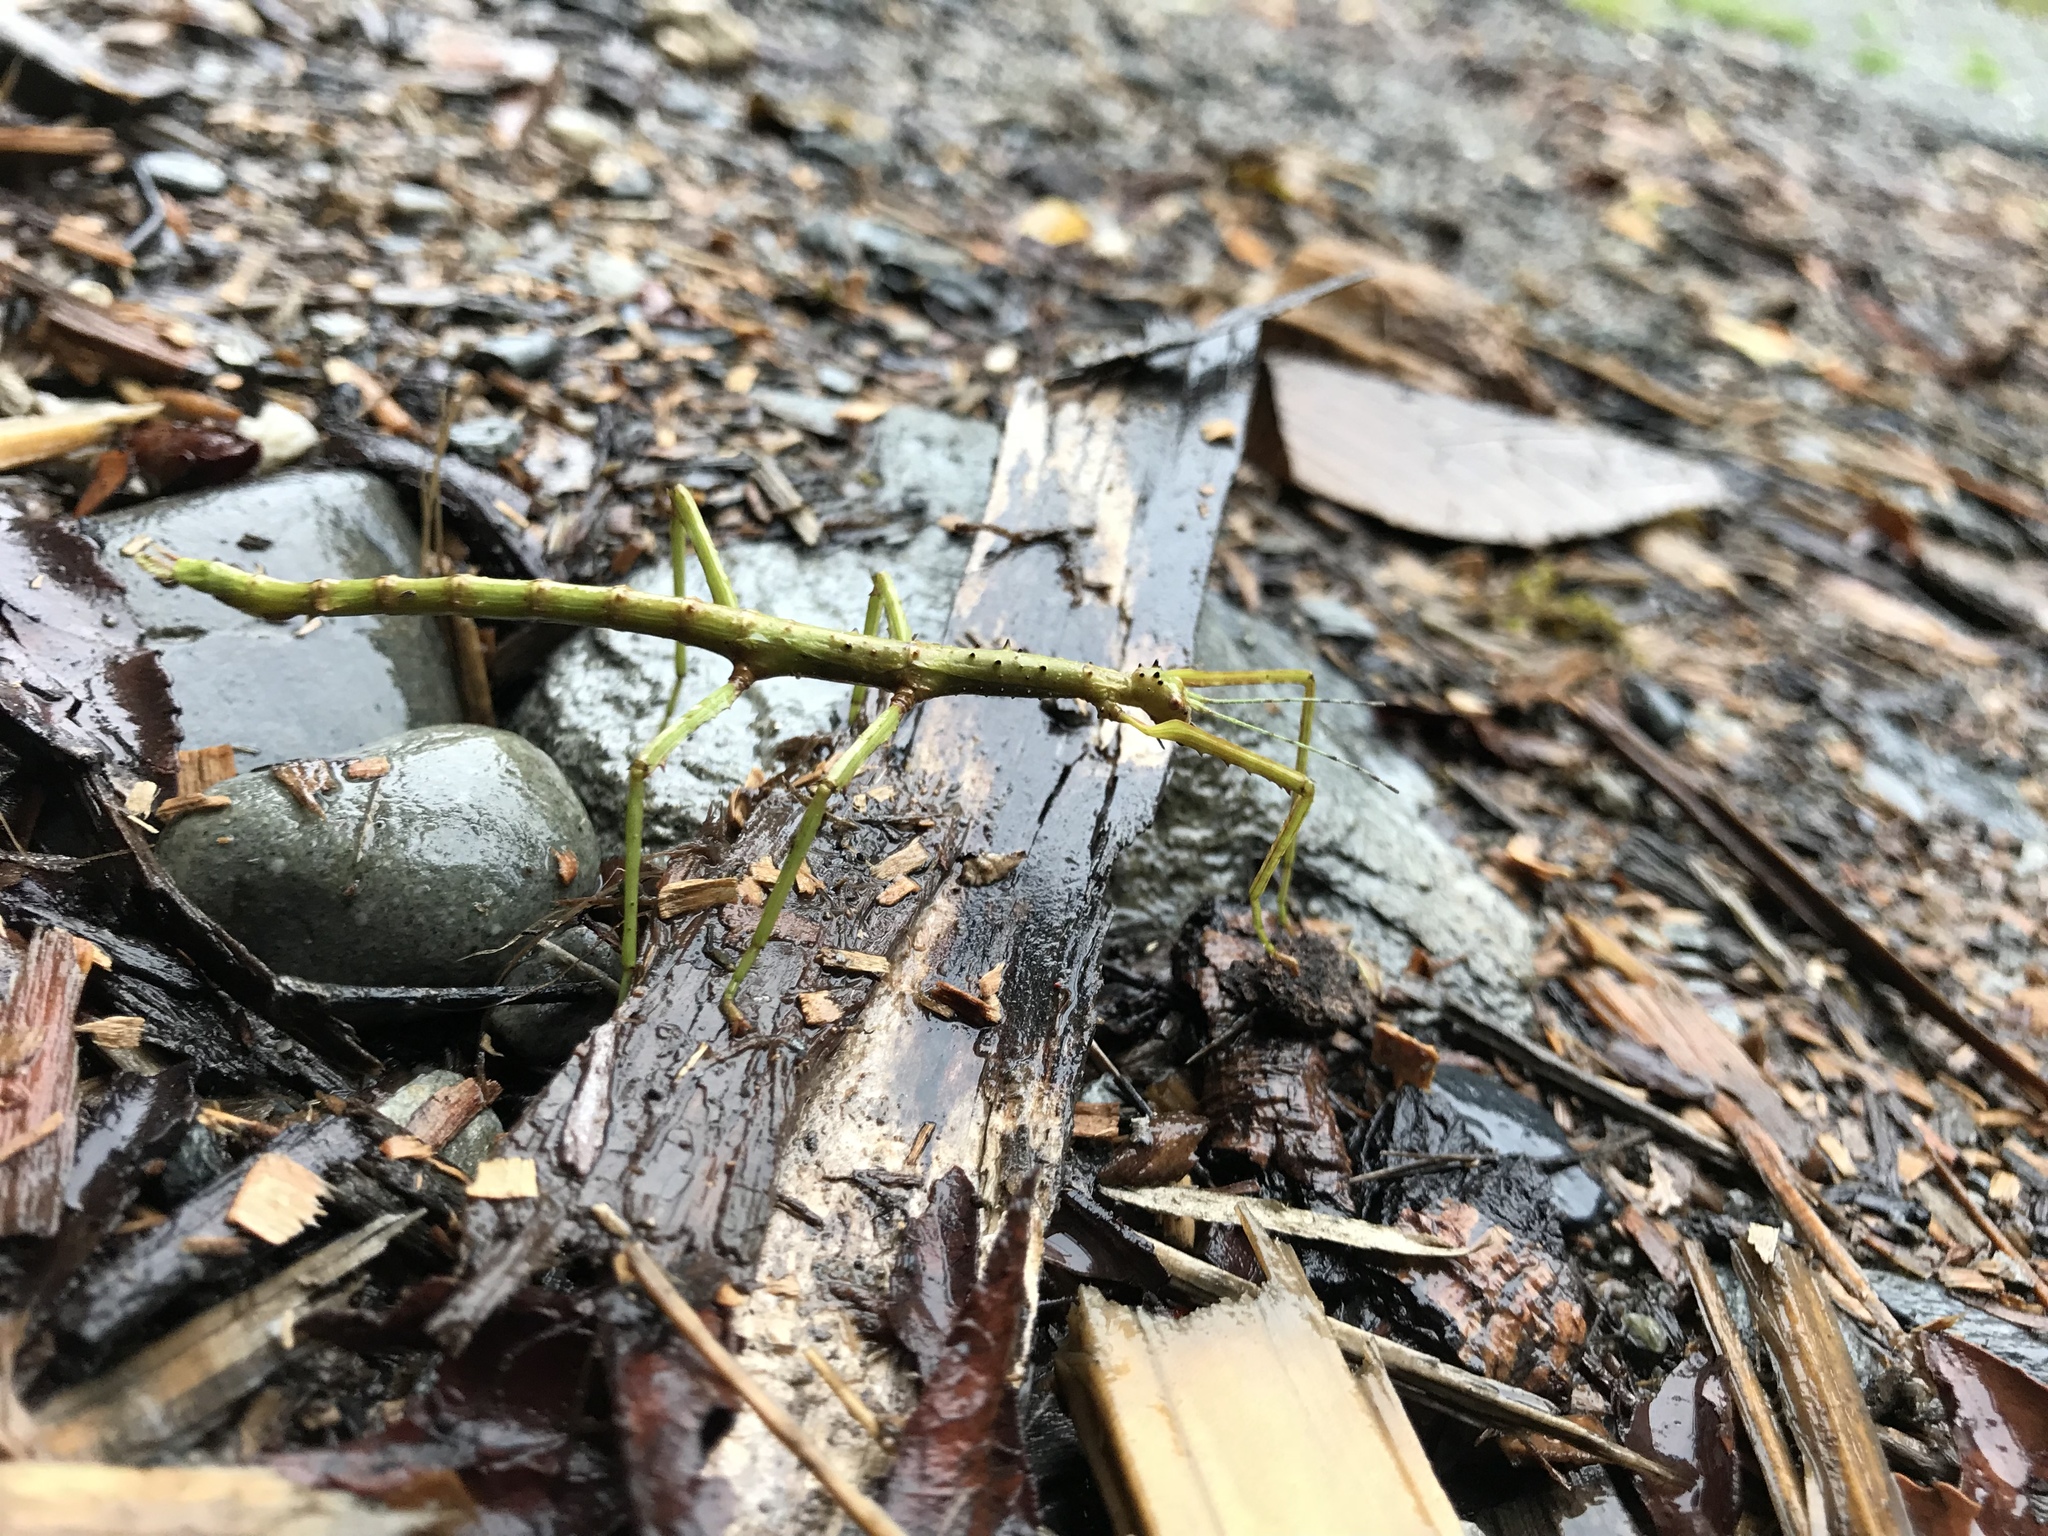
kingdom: Animalia
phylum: Arthropoda
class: Insecta
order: Phasmida
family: Phasmatidae
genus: Acanthoxyla
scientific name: Acanthoxyla geisovii
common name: Prickly stick insect
